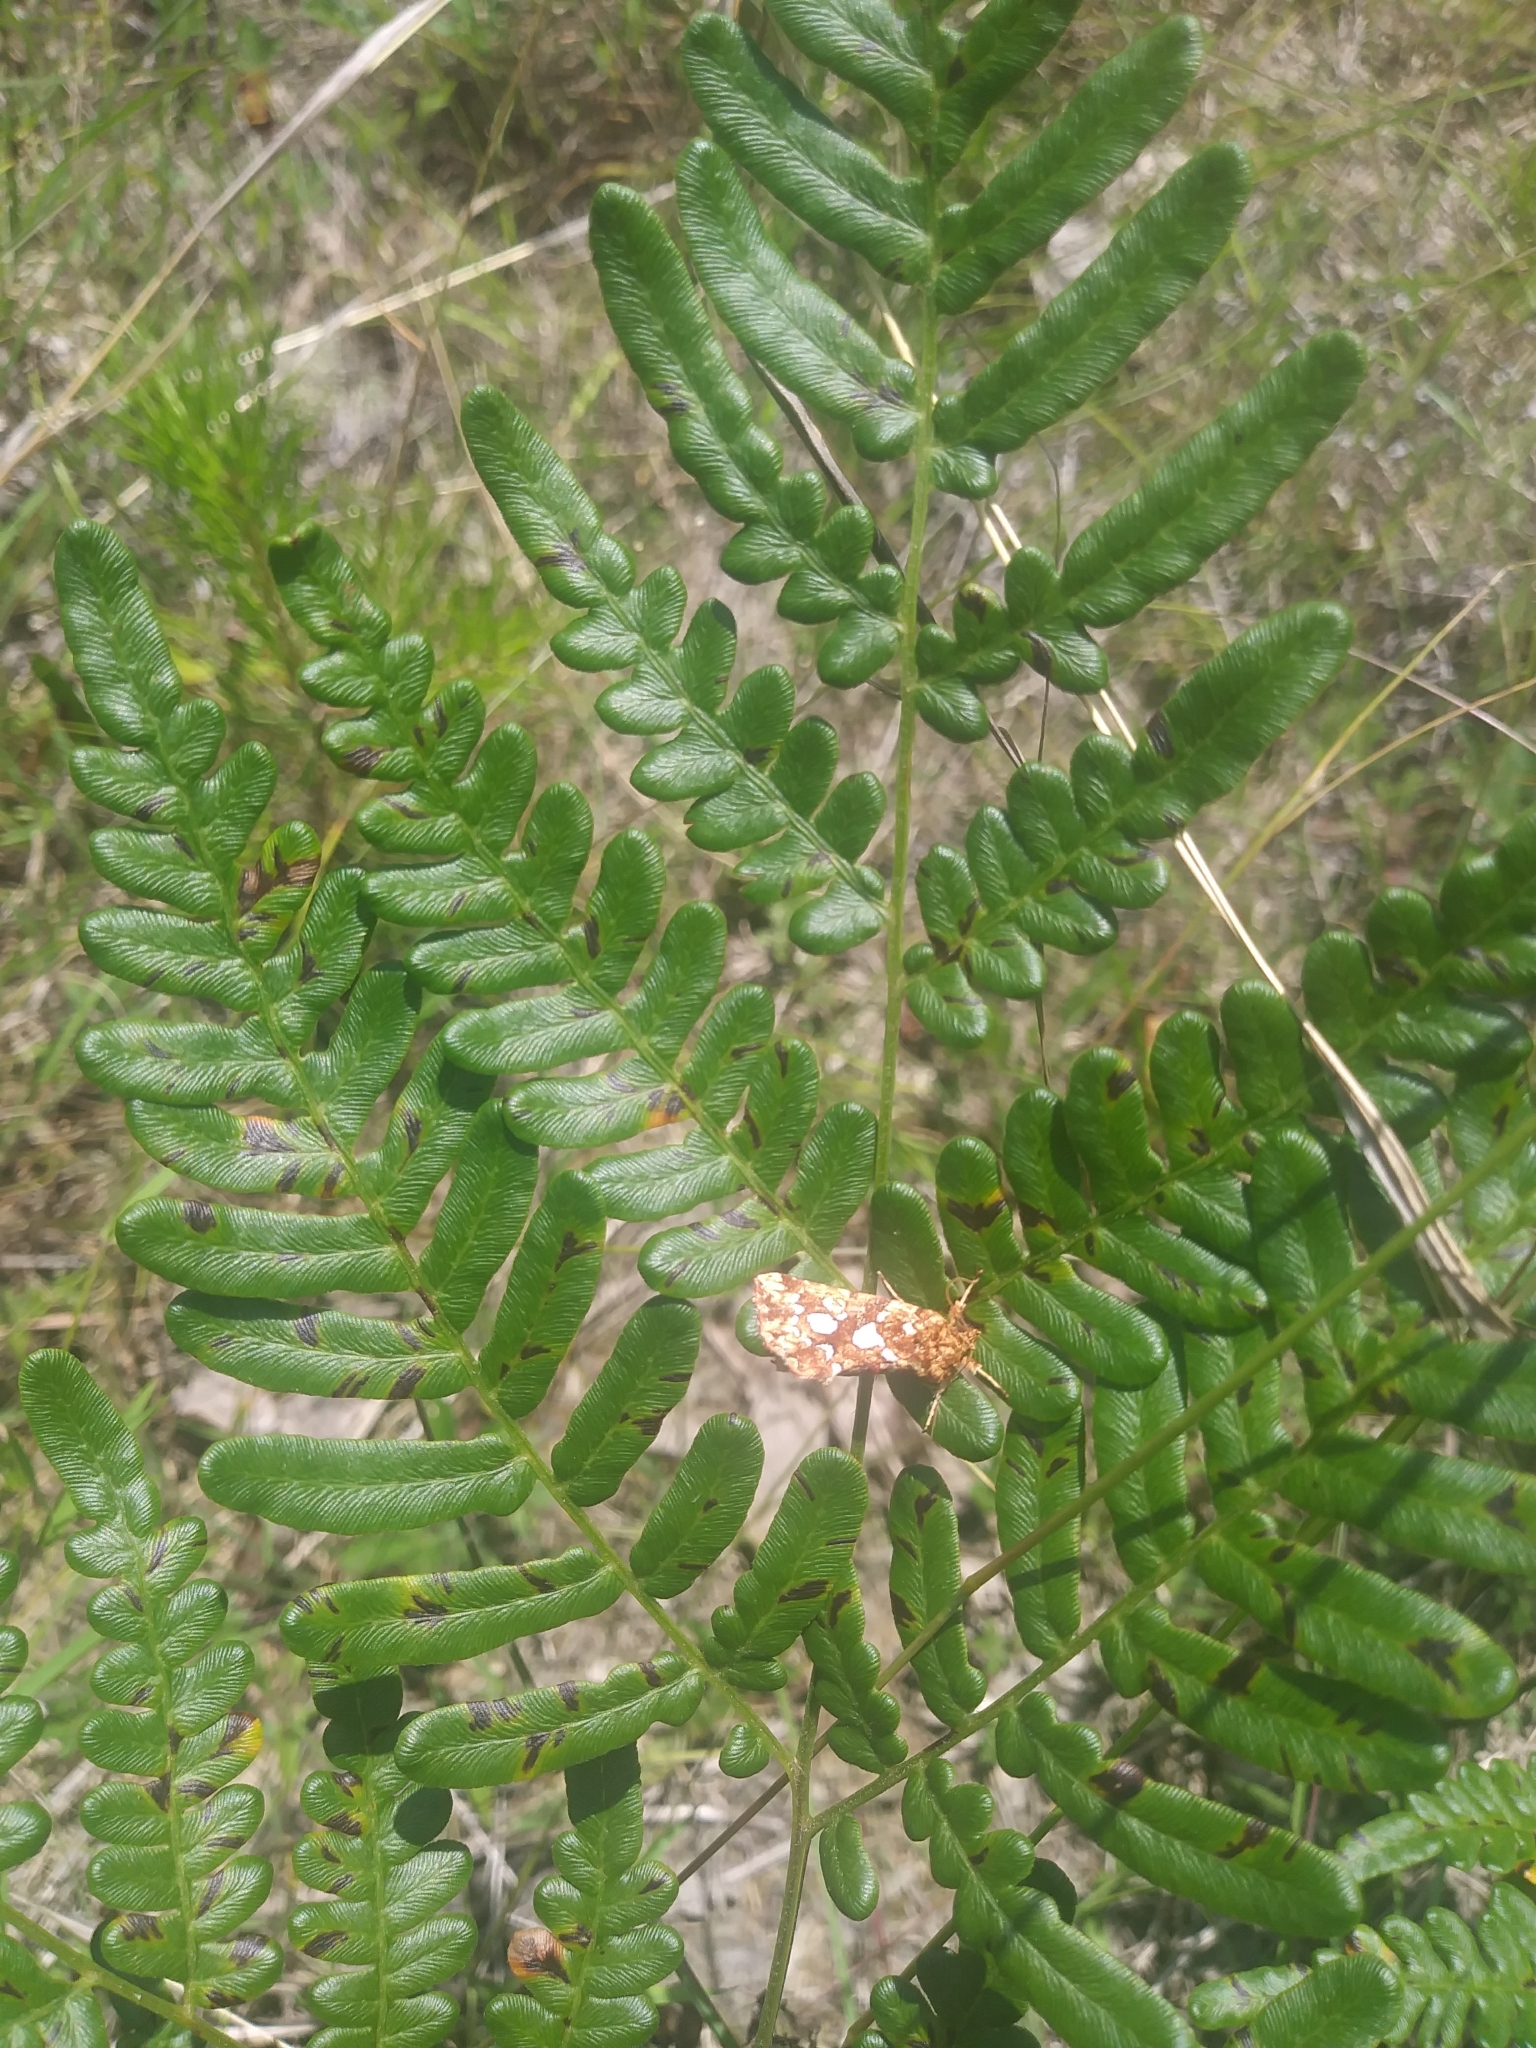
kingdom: Animalia
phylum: Arthropoda
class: Insecta
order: Lepidoptera
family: Noctuidae
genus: Callopistria
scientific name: Callopistria cordata
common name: Silver-spotted fern moth
